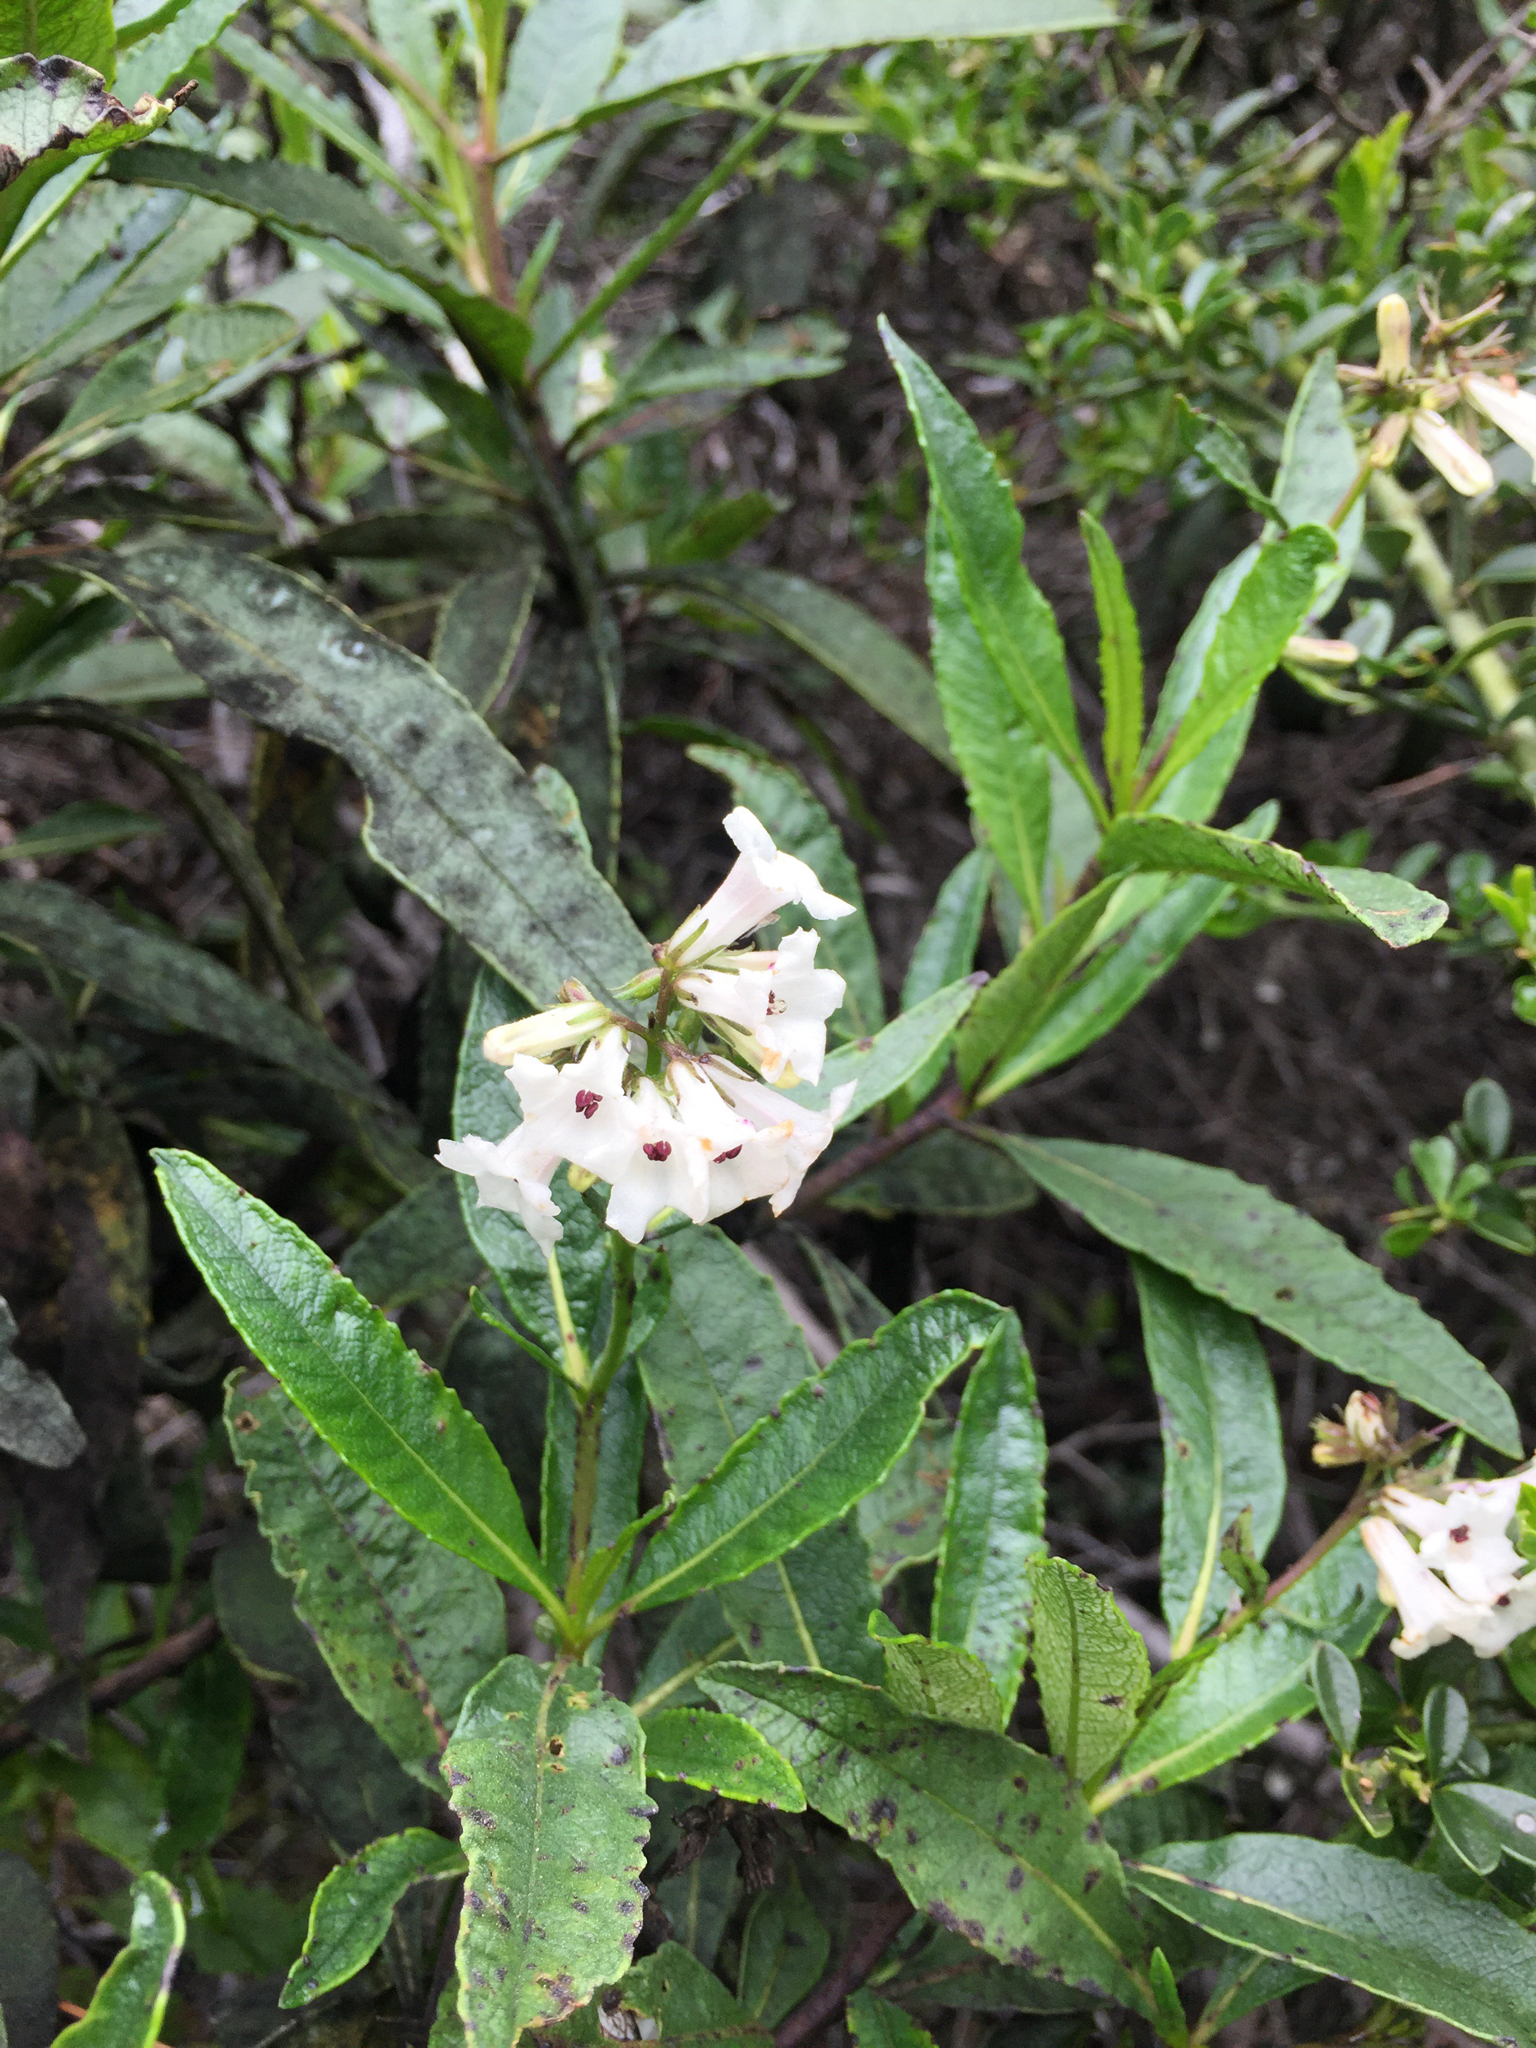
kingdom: Plantae
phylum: Tracheophyta
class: Magnoliopsida
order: Boraginales
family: Namaceae
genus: Eriodictyon
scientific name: Eriodictyon californicum
